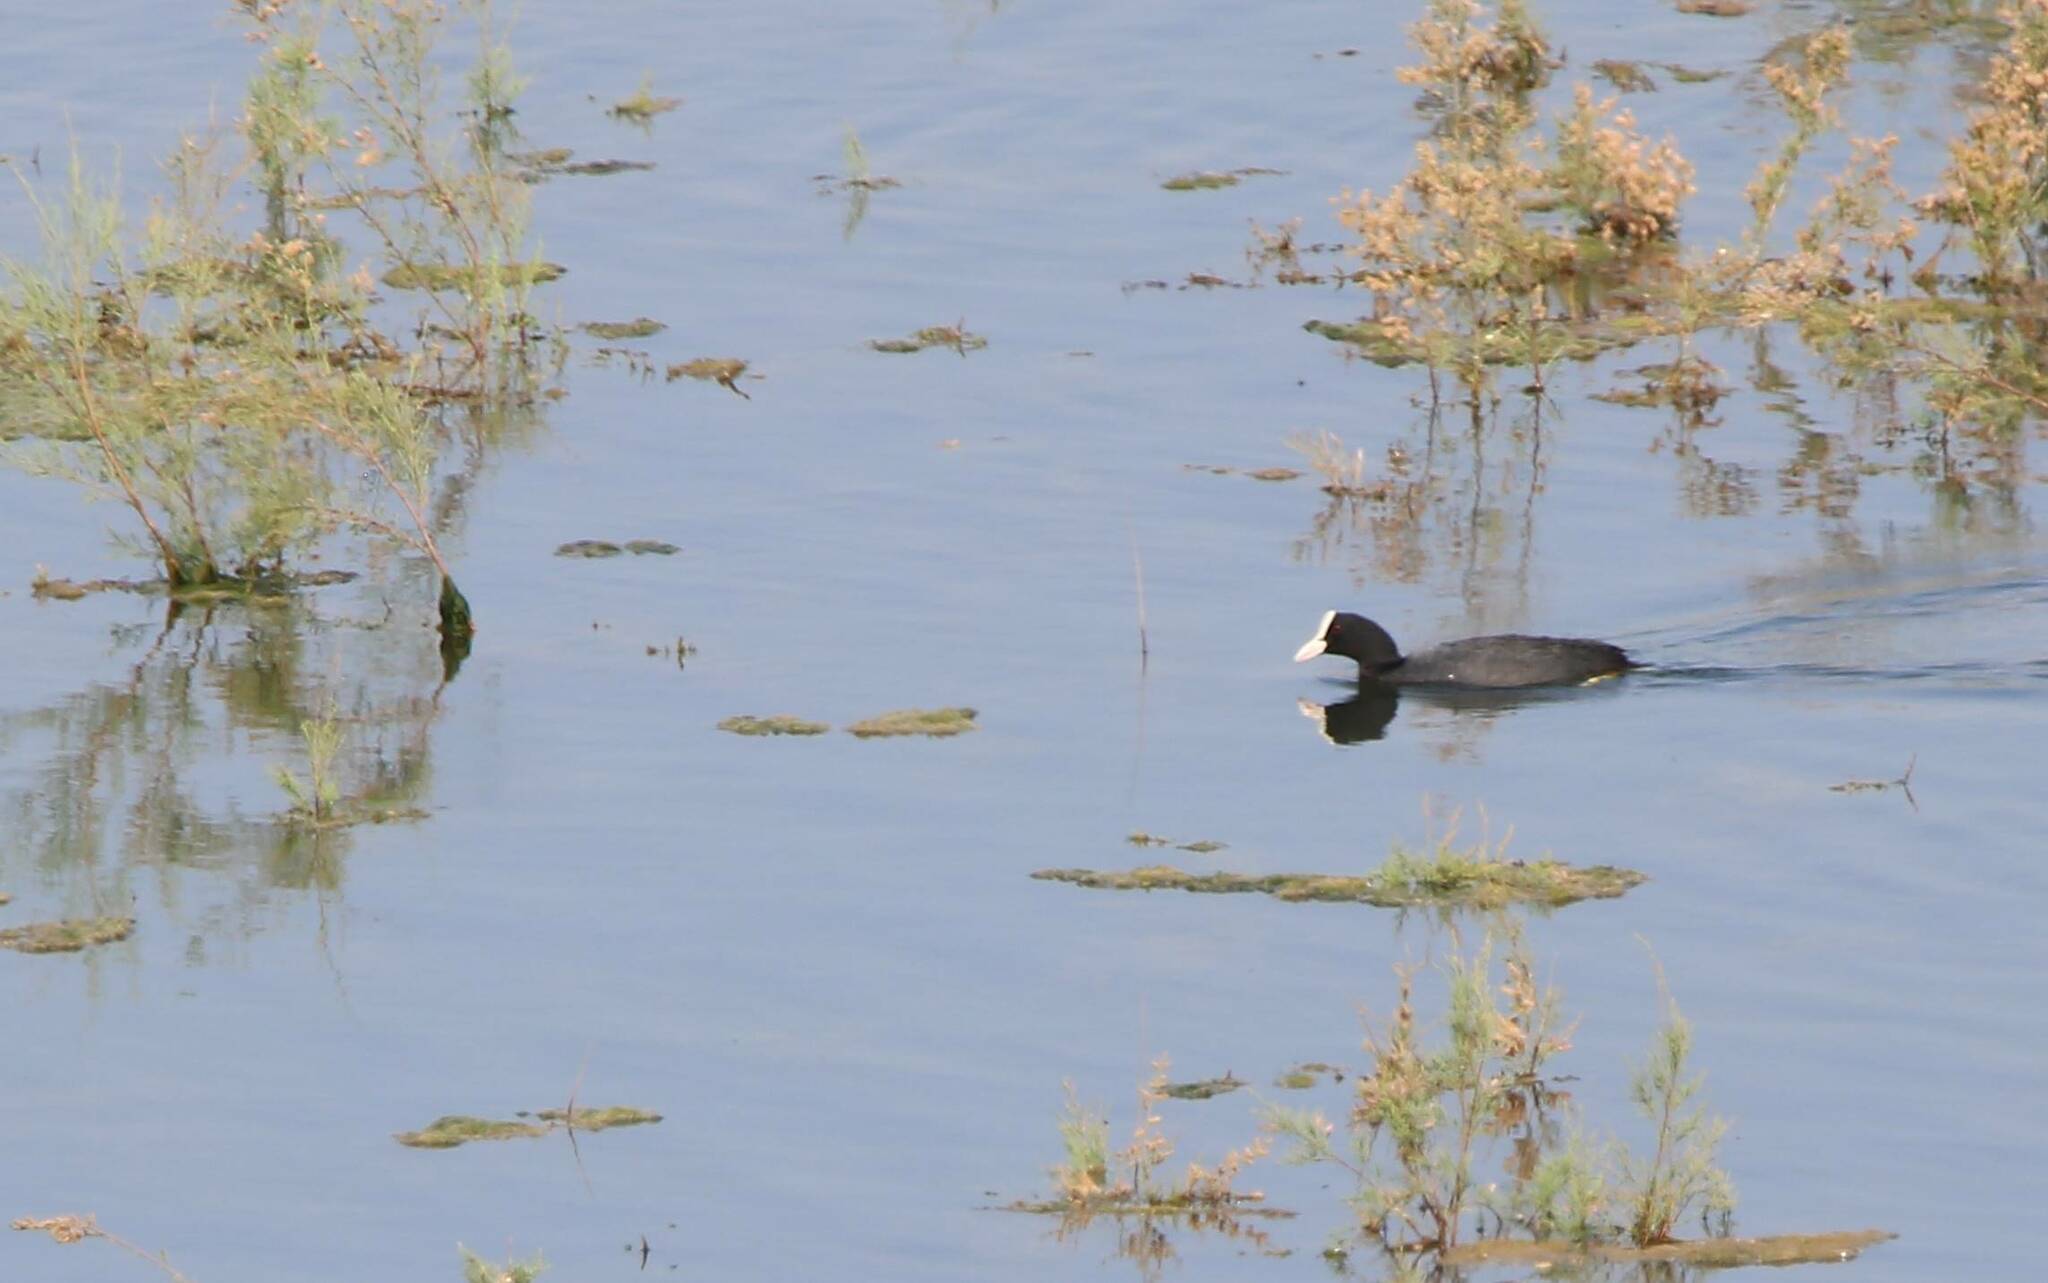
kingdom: Animalia
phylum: Chordata
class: Aves
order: Gruiformes
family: Rallidae
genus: Fulica
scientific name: Fulica atra
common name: Eurasian coot
